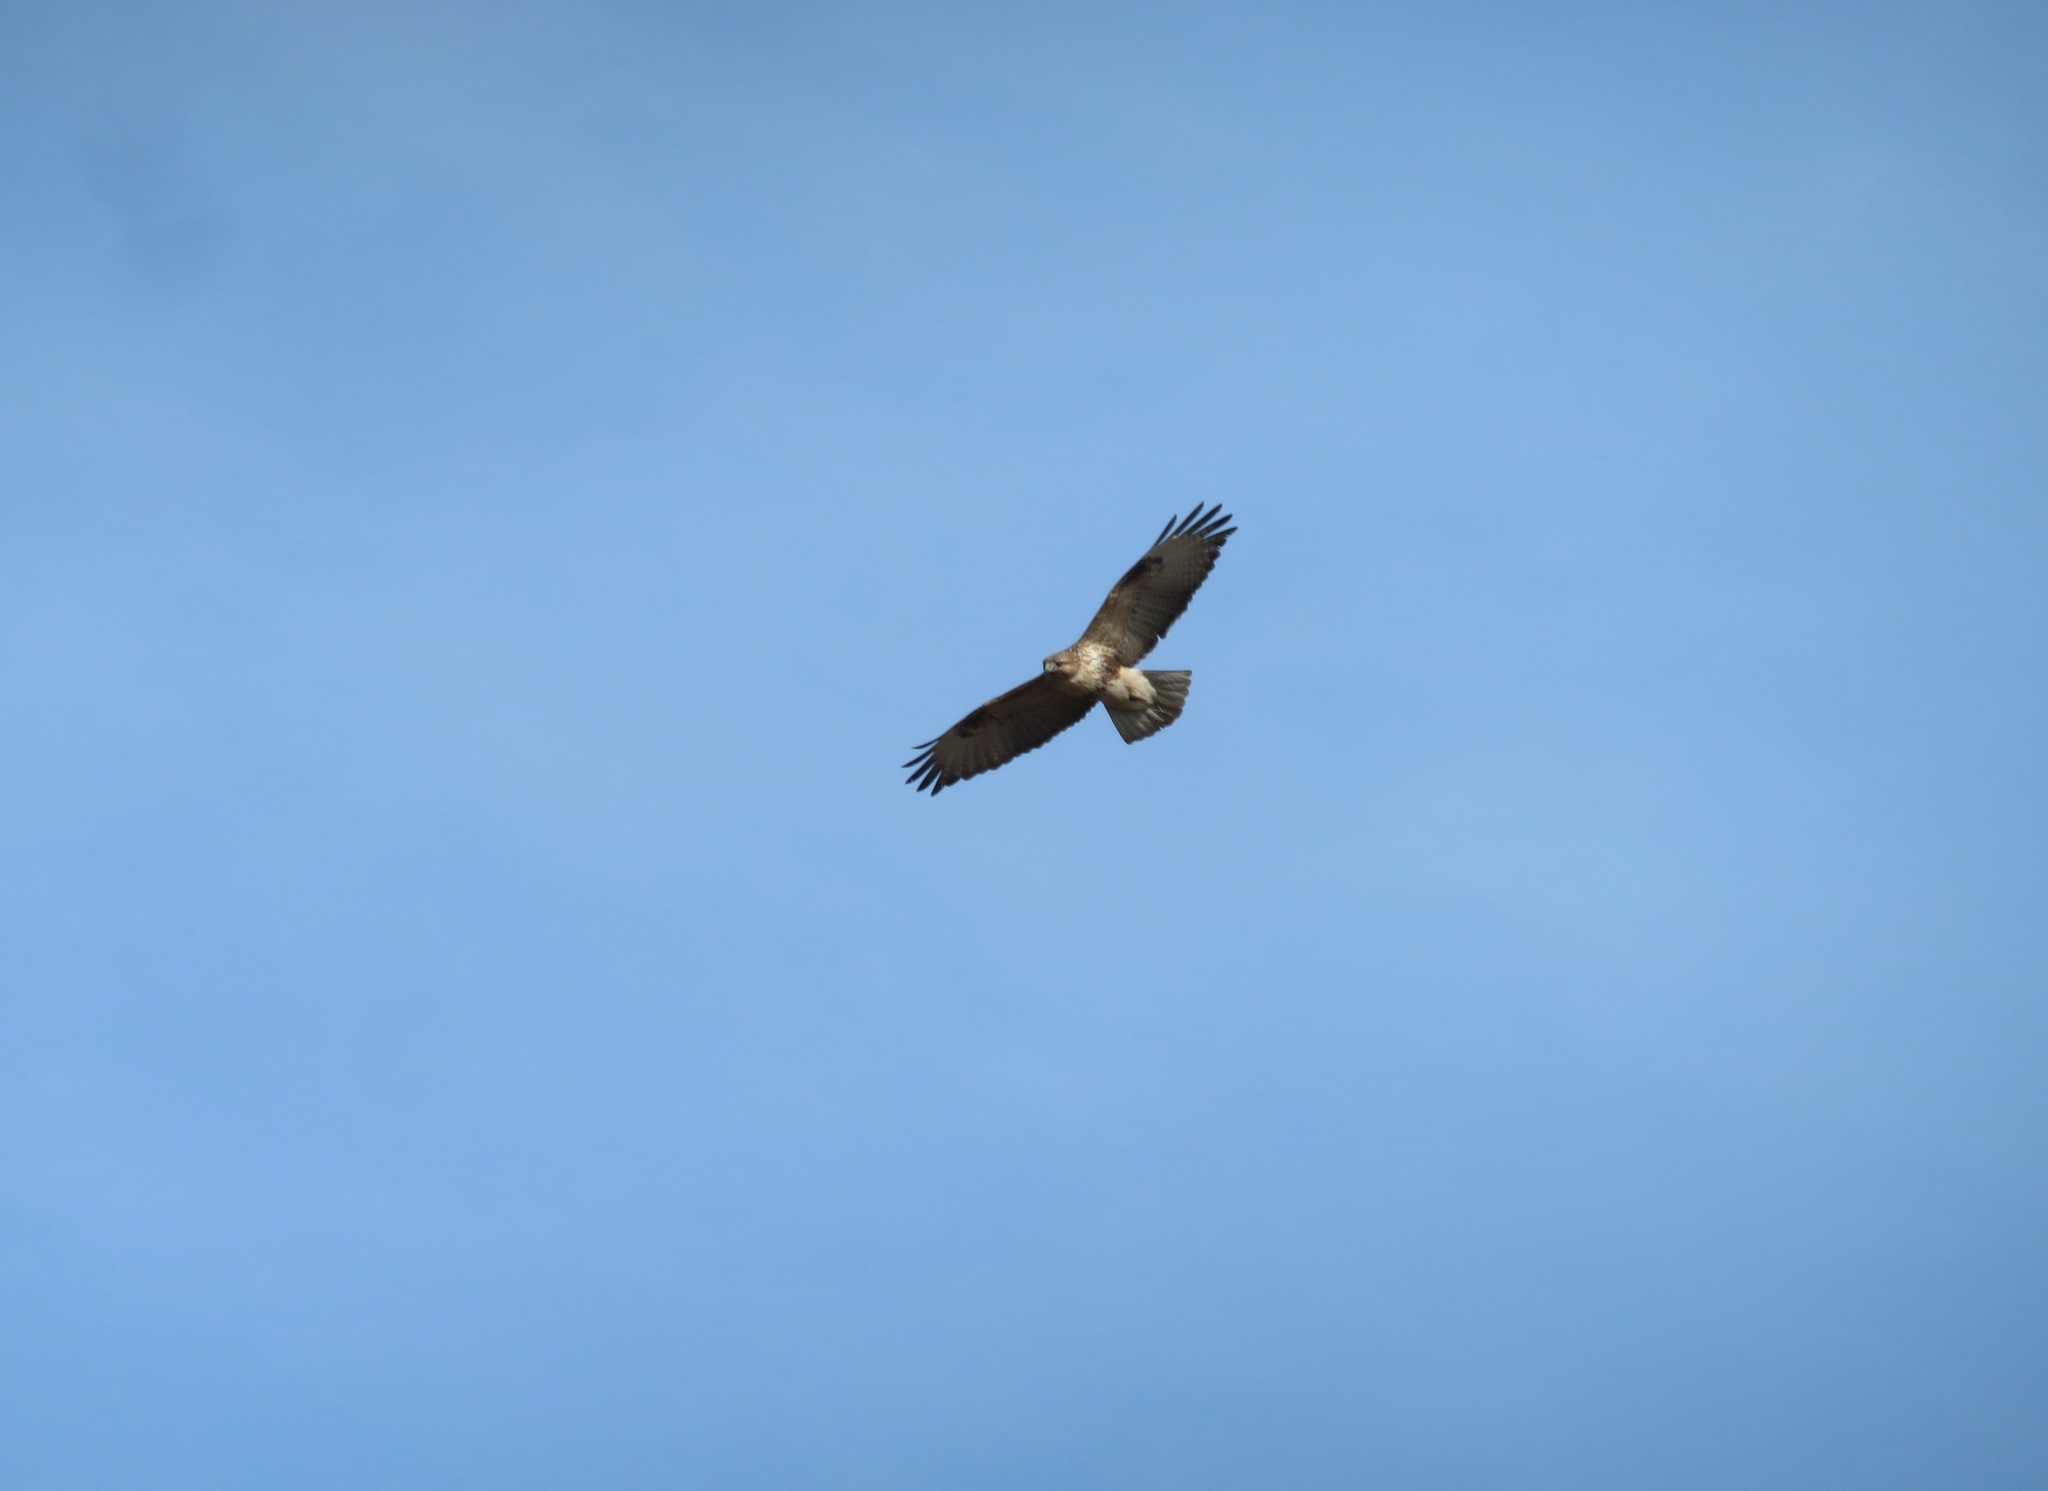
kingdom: Animalia
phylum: Chordata
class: Aves
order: Accipitriformes
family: Accipitridae
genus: Buteo
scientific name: Buteo japonicus
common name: Eastern buzzard
